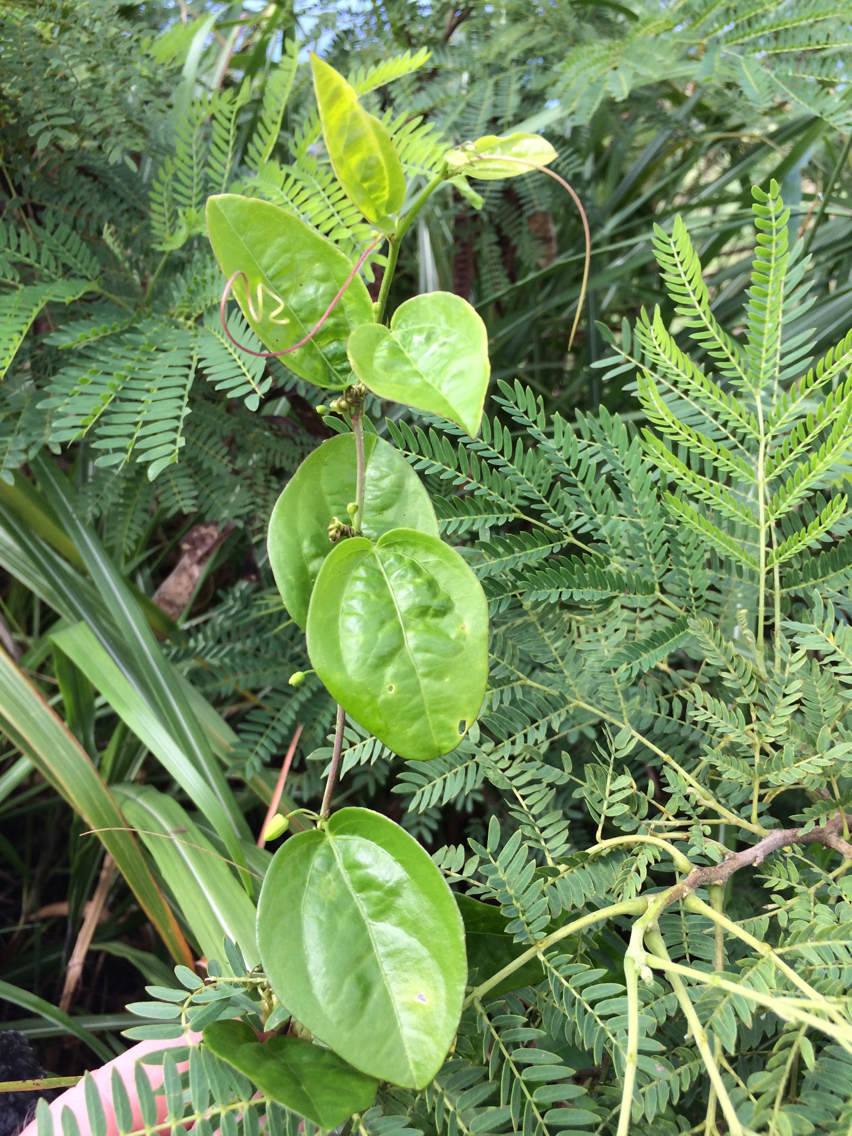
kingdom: Plantae
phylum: Tracheophyta
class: Magnoliopsida
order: Malpighiales
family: Passifloraceae
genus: Passiflora
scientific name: Passiflora suberosa
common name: Wild passionfruit
